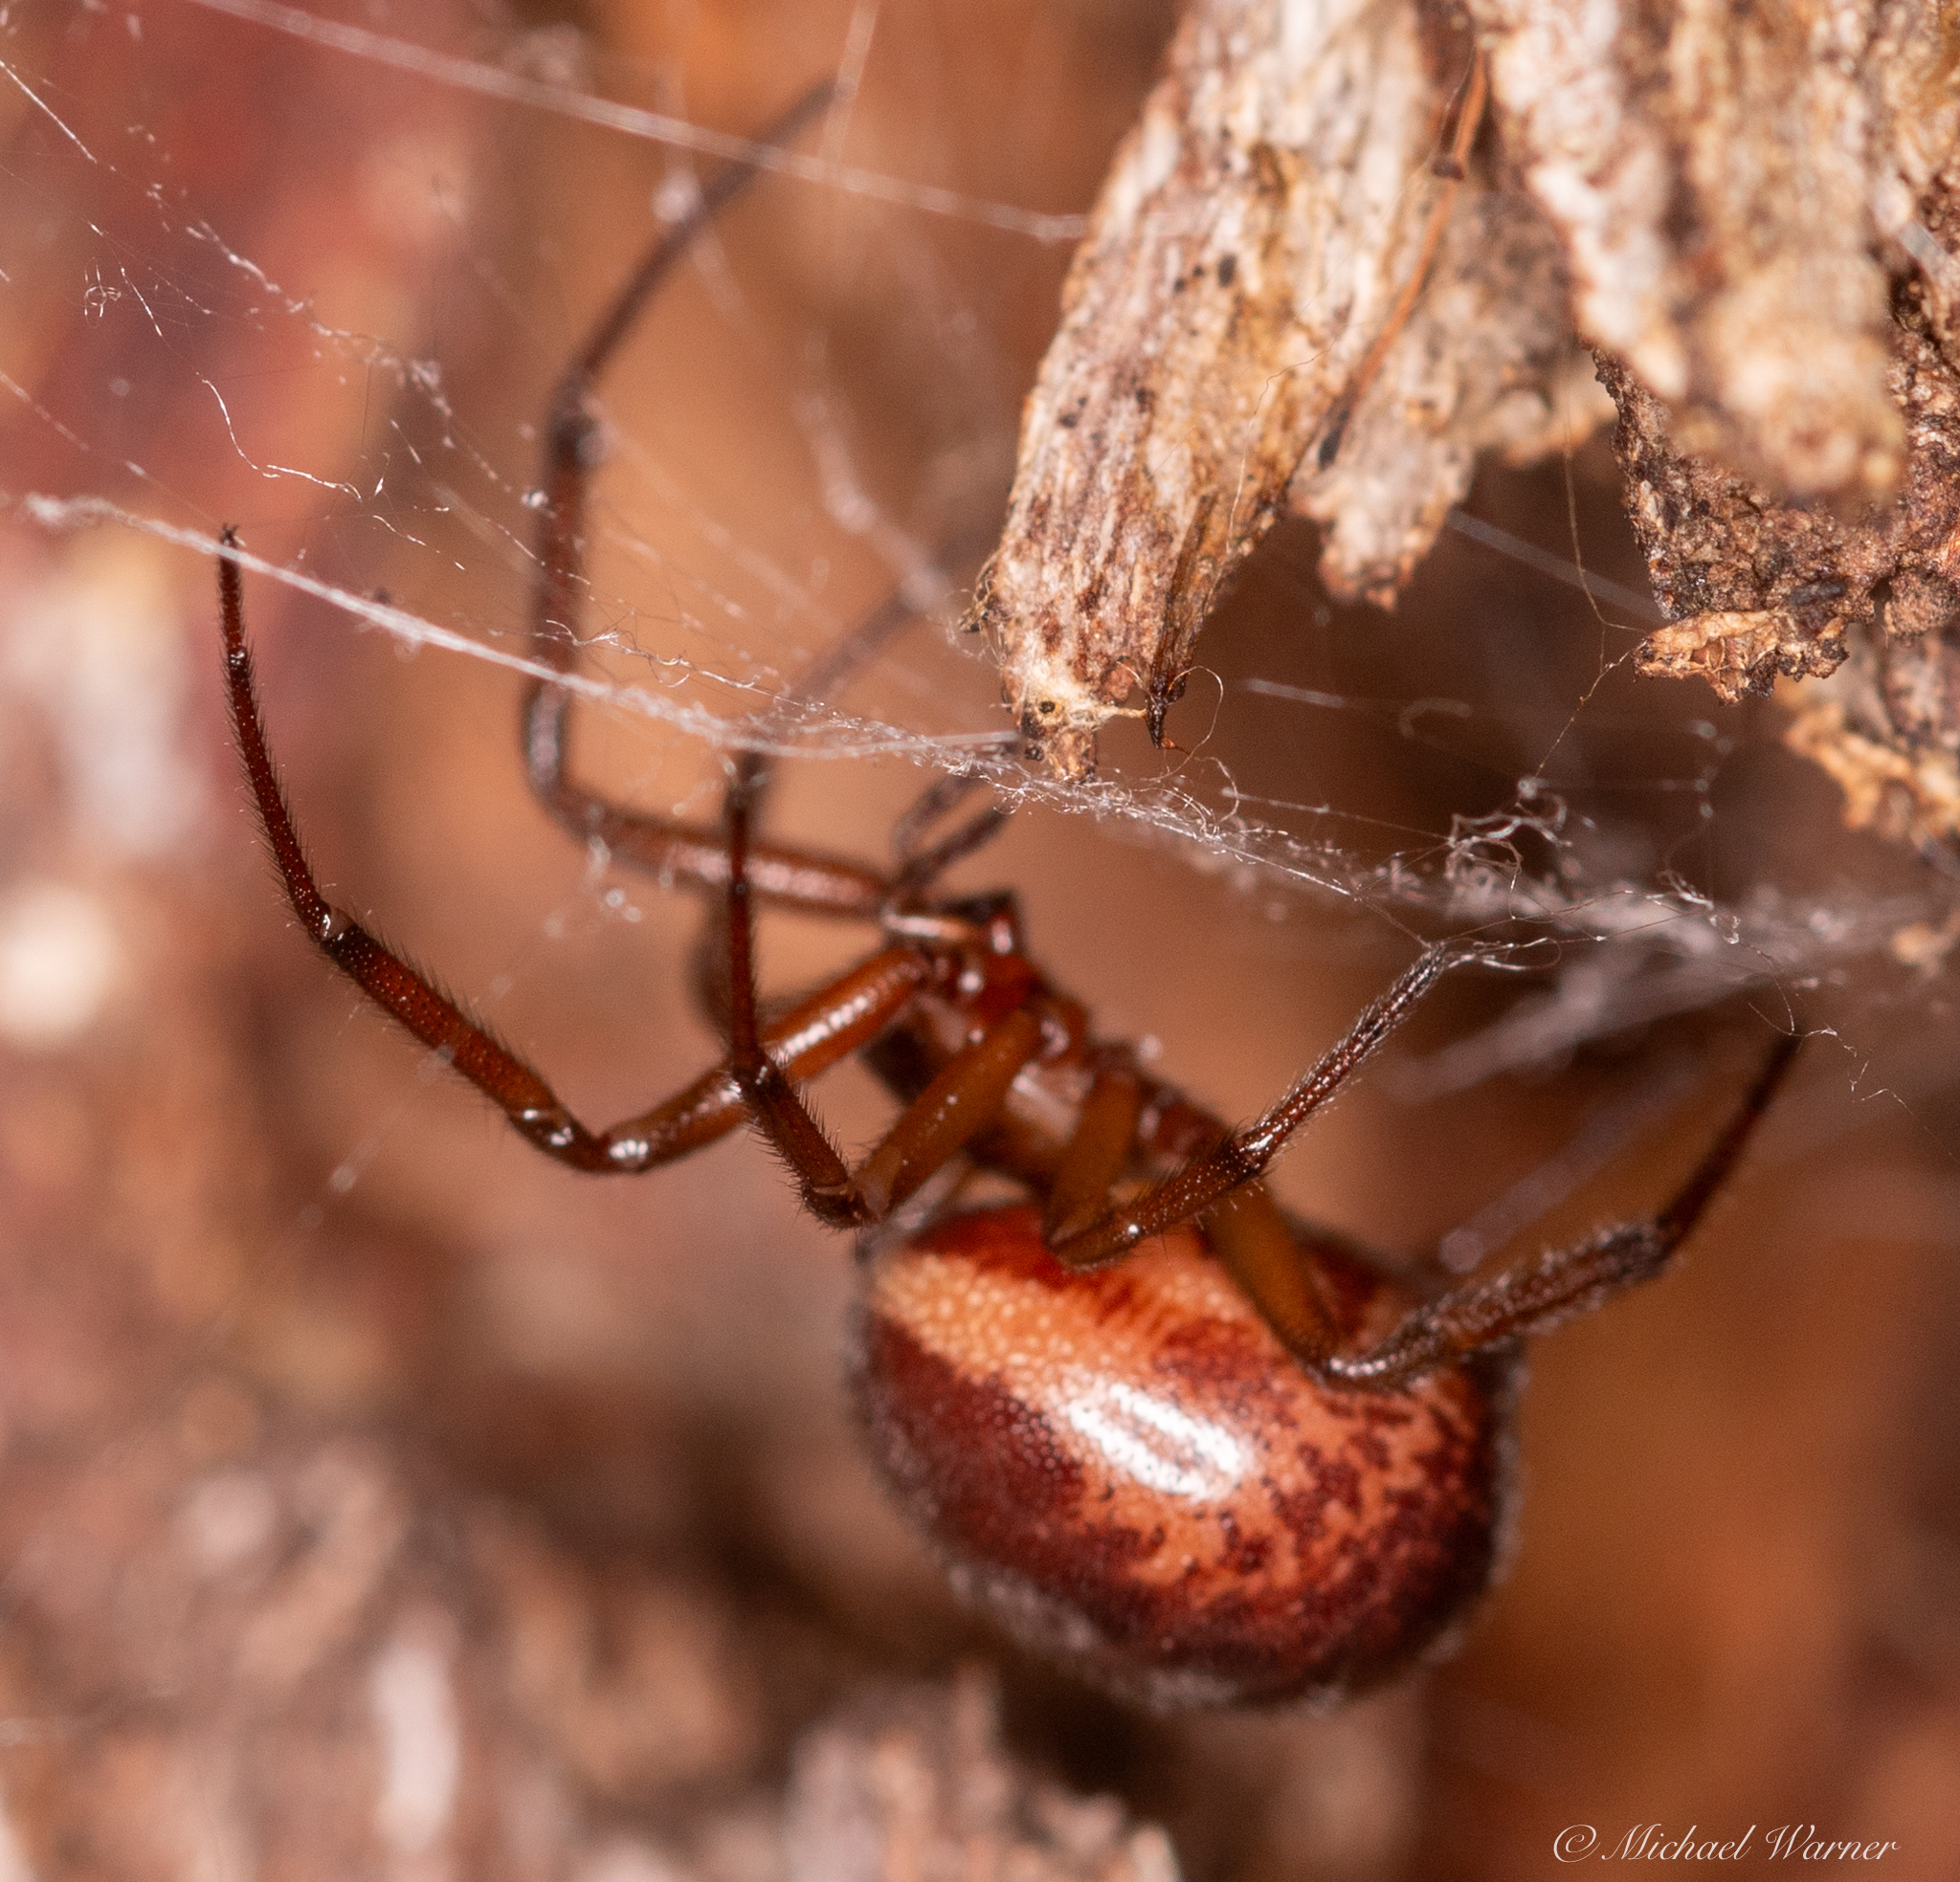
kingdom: Animalia
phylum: Arthropoda
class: Arachnida
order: Araneae
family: Theridiidae
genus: Steatoda
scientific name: Steatoda nobilis
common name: Cobweb weaver
